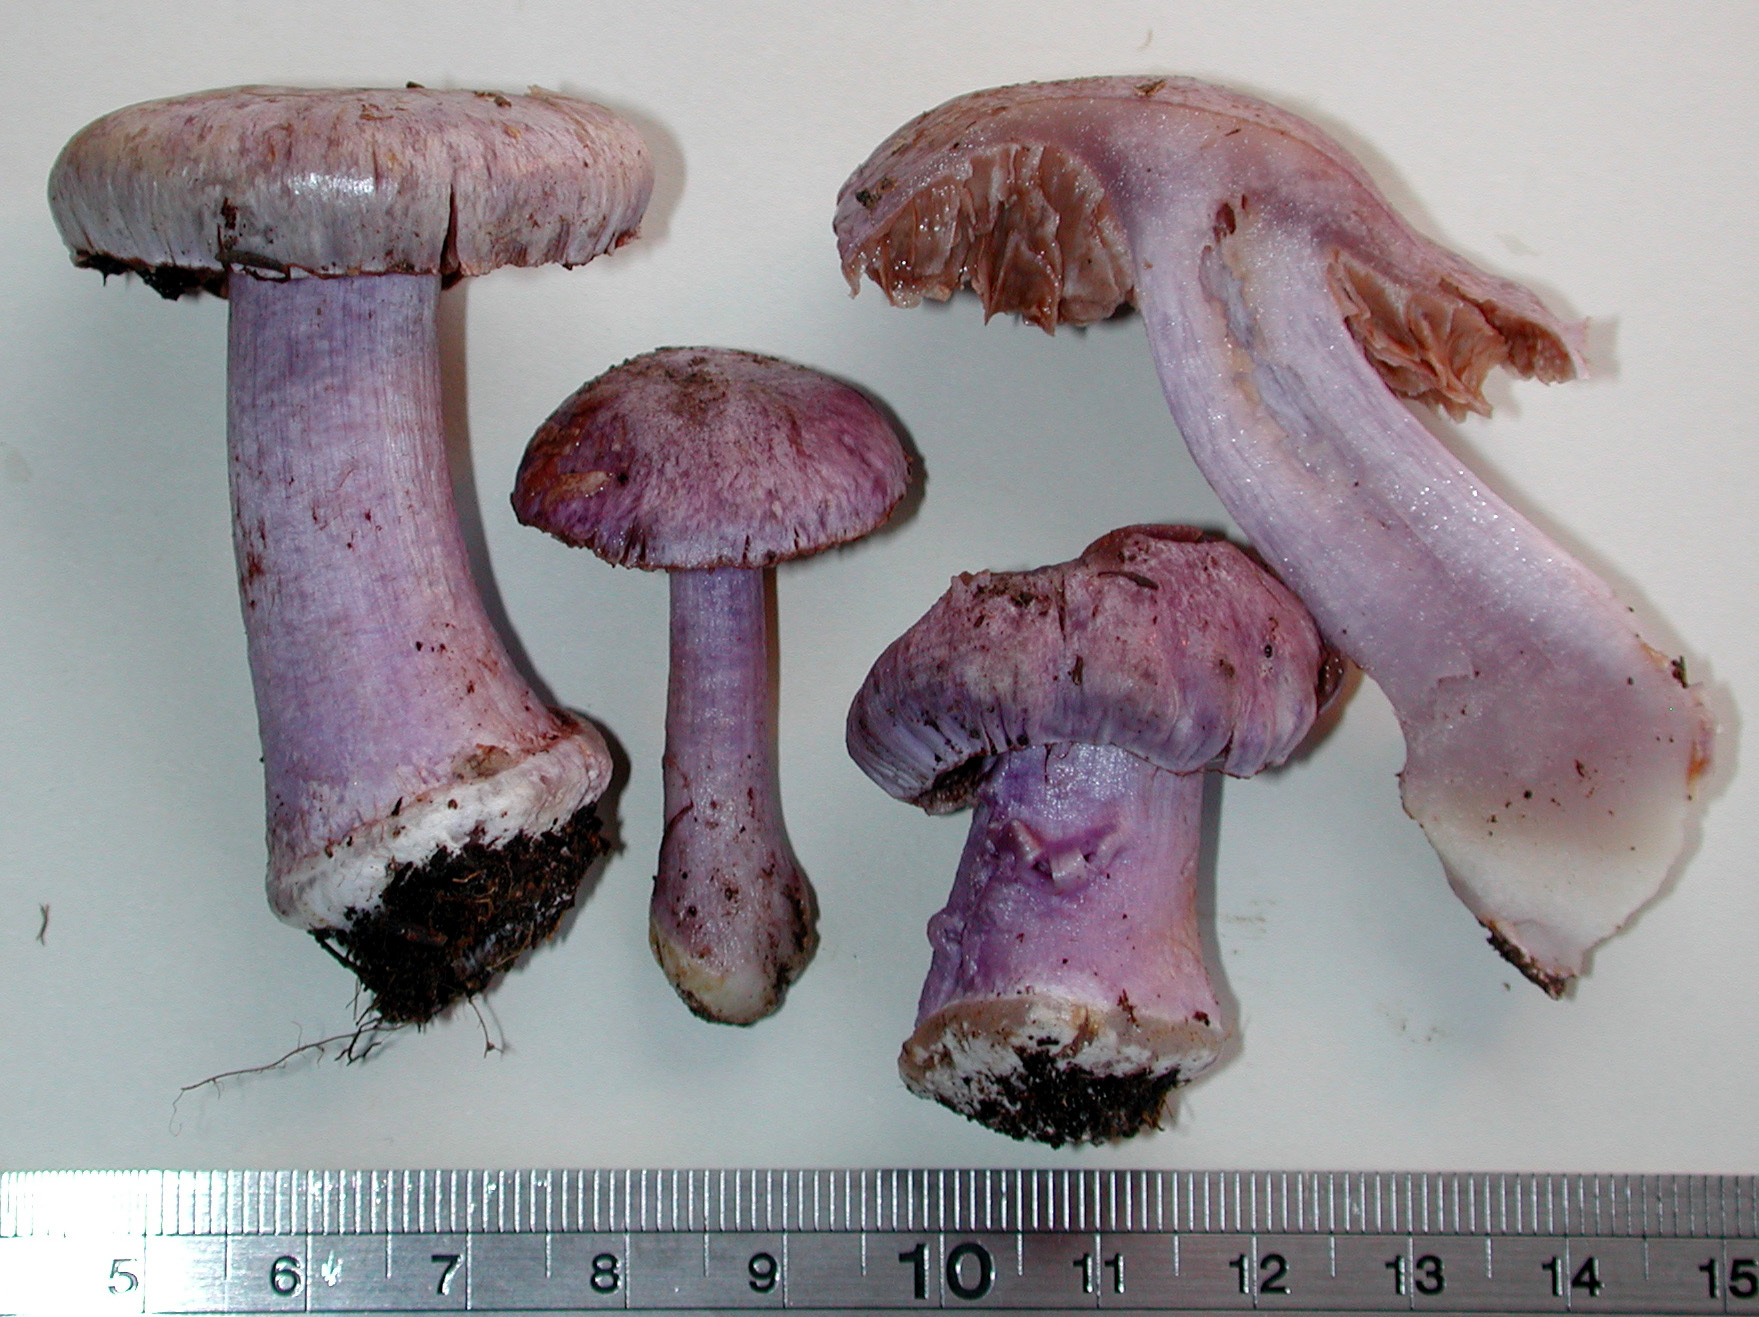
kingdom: Fungi
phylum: Basidiomycota
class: Agaricomycetes
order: Agaricales
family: Cortinariaceae
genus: Thaxterogaster
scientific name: Thaxterogaster austrovaginatus
